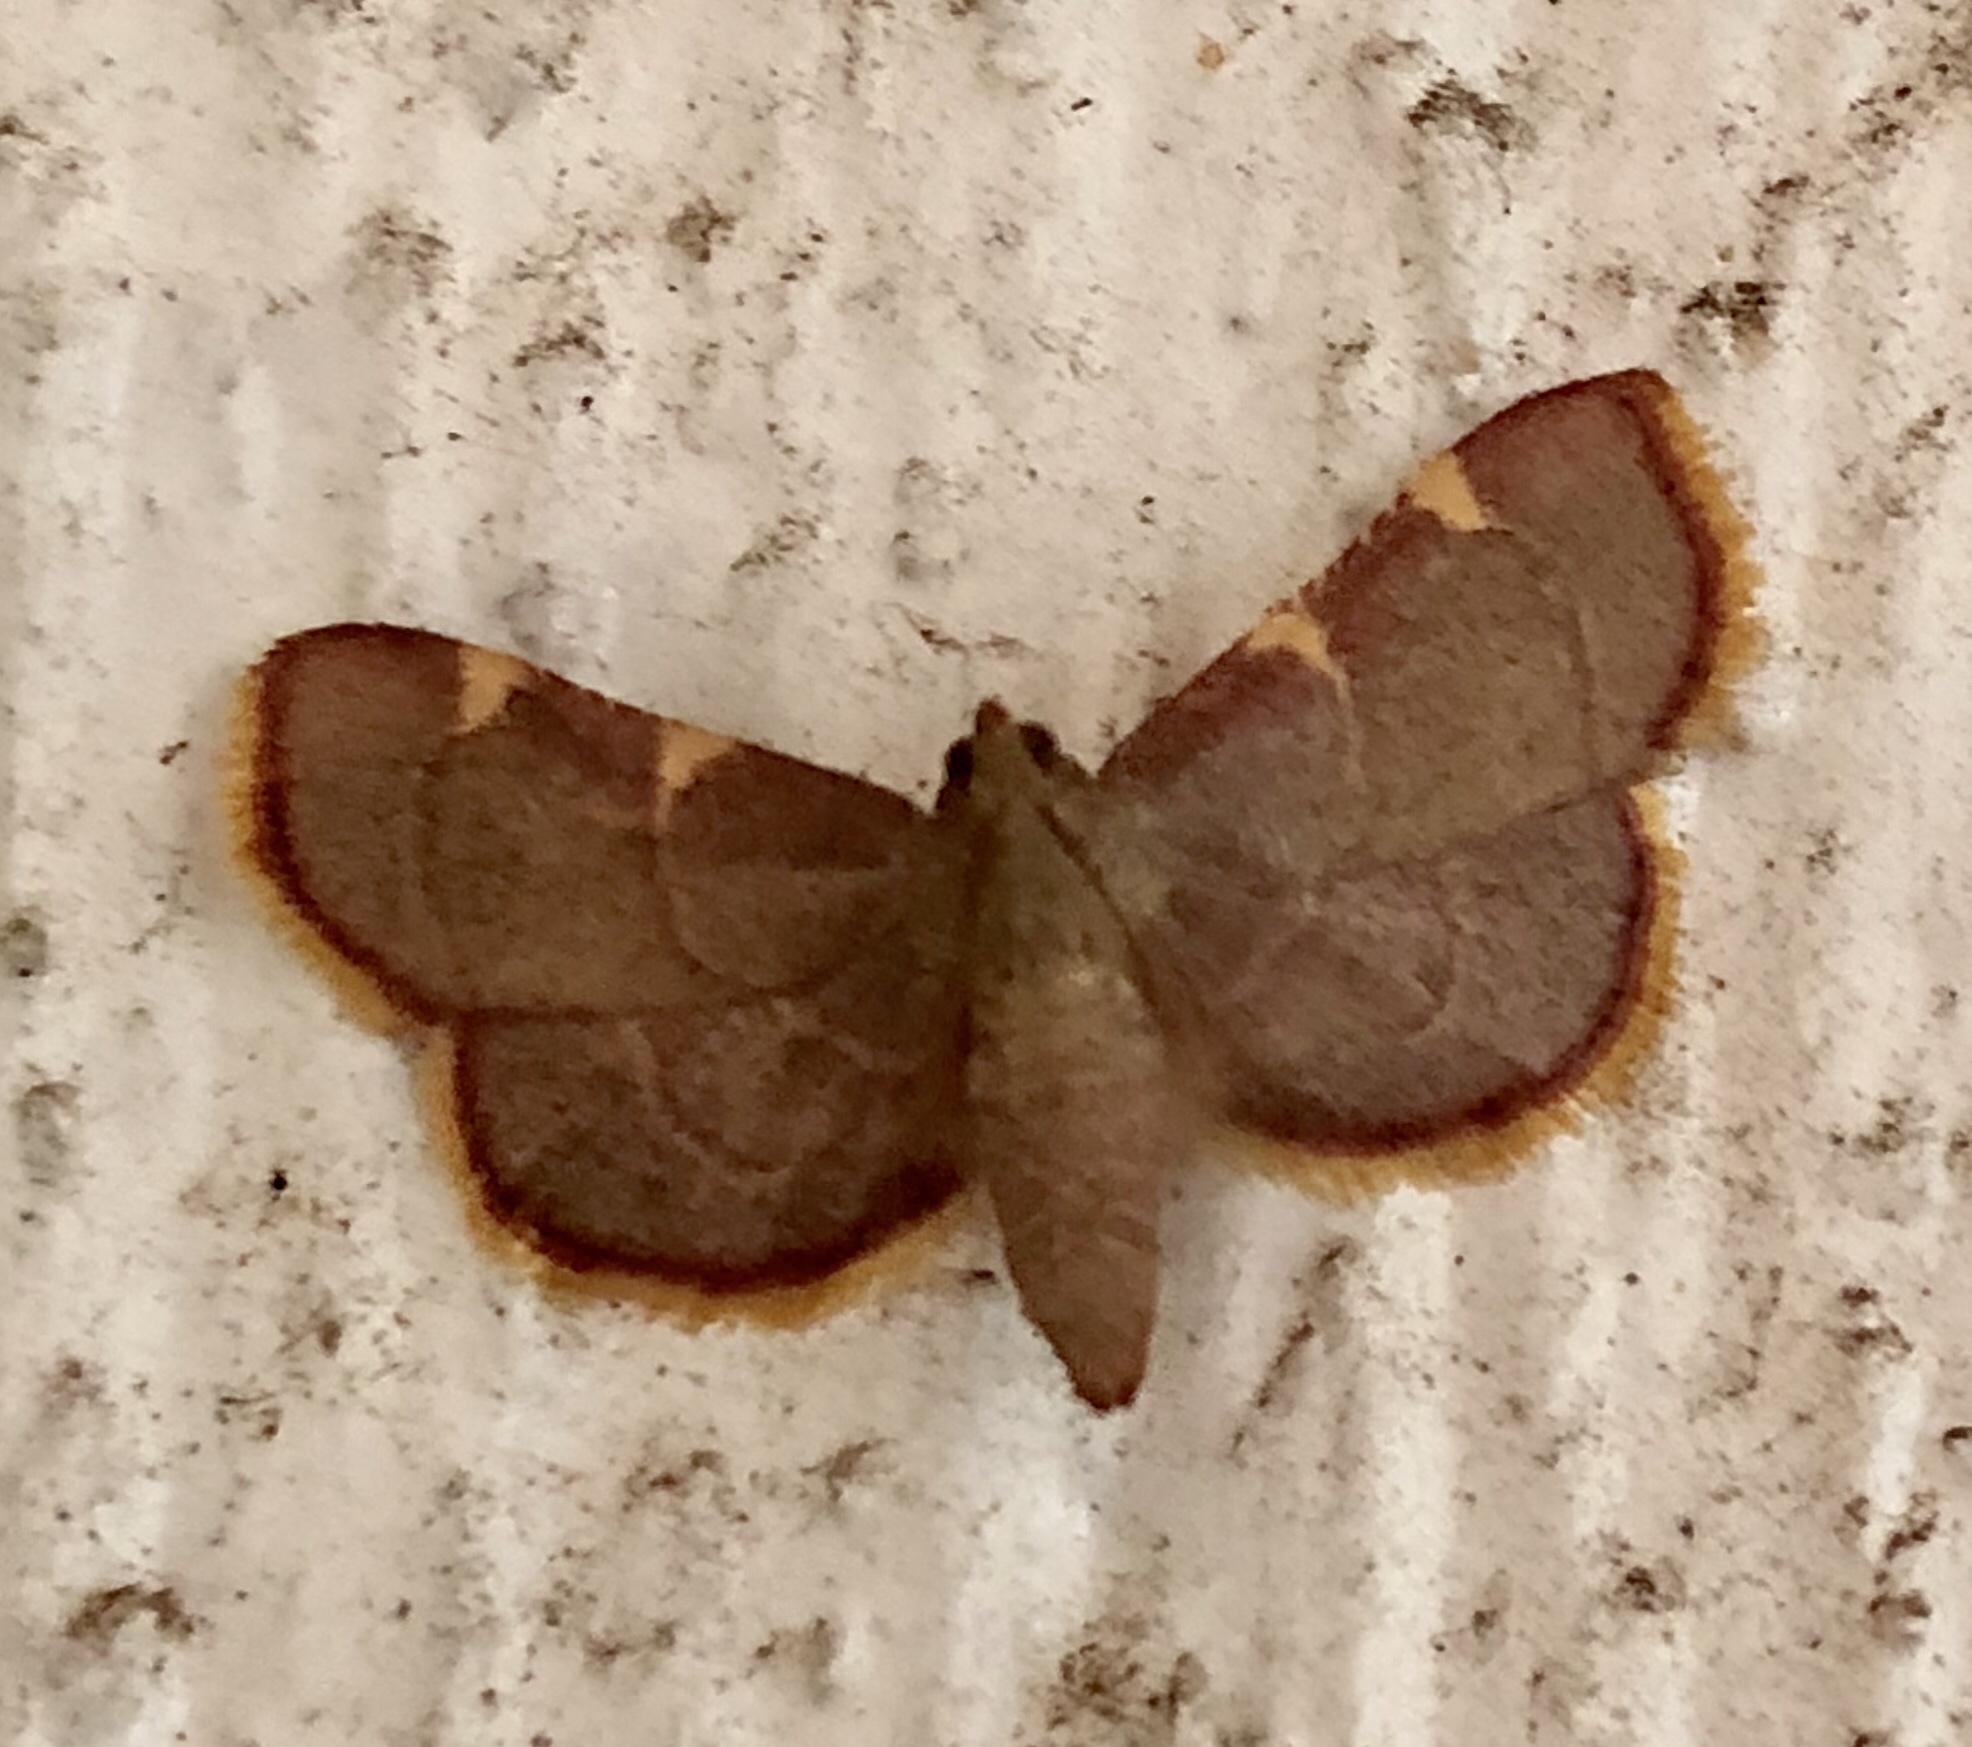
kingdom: Animalia
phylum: Arthropoda
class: Insecta
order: Lepidoptera
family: Pyralidae
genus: Hypsopygia
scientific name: Hypsopygia olinalis
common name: Yellow-fringed dolichomia moth
